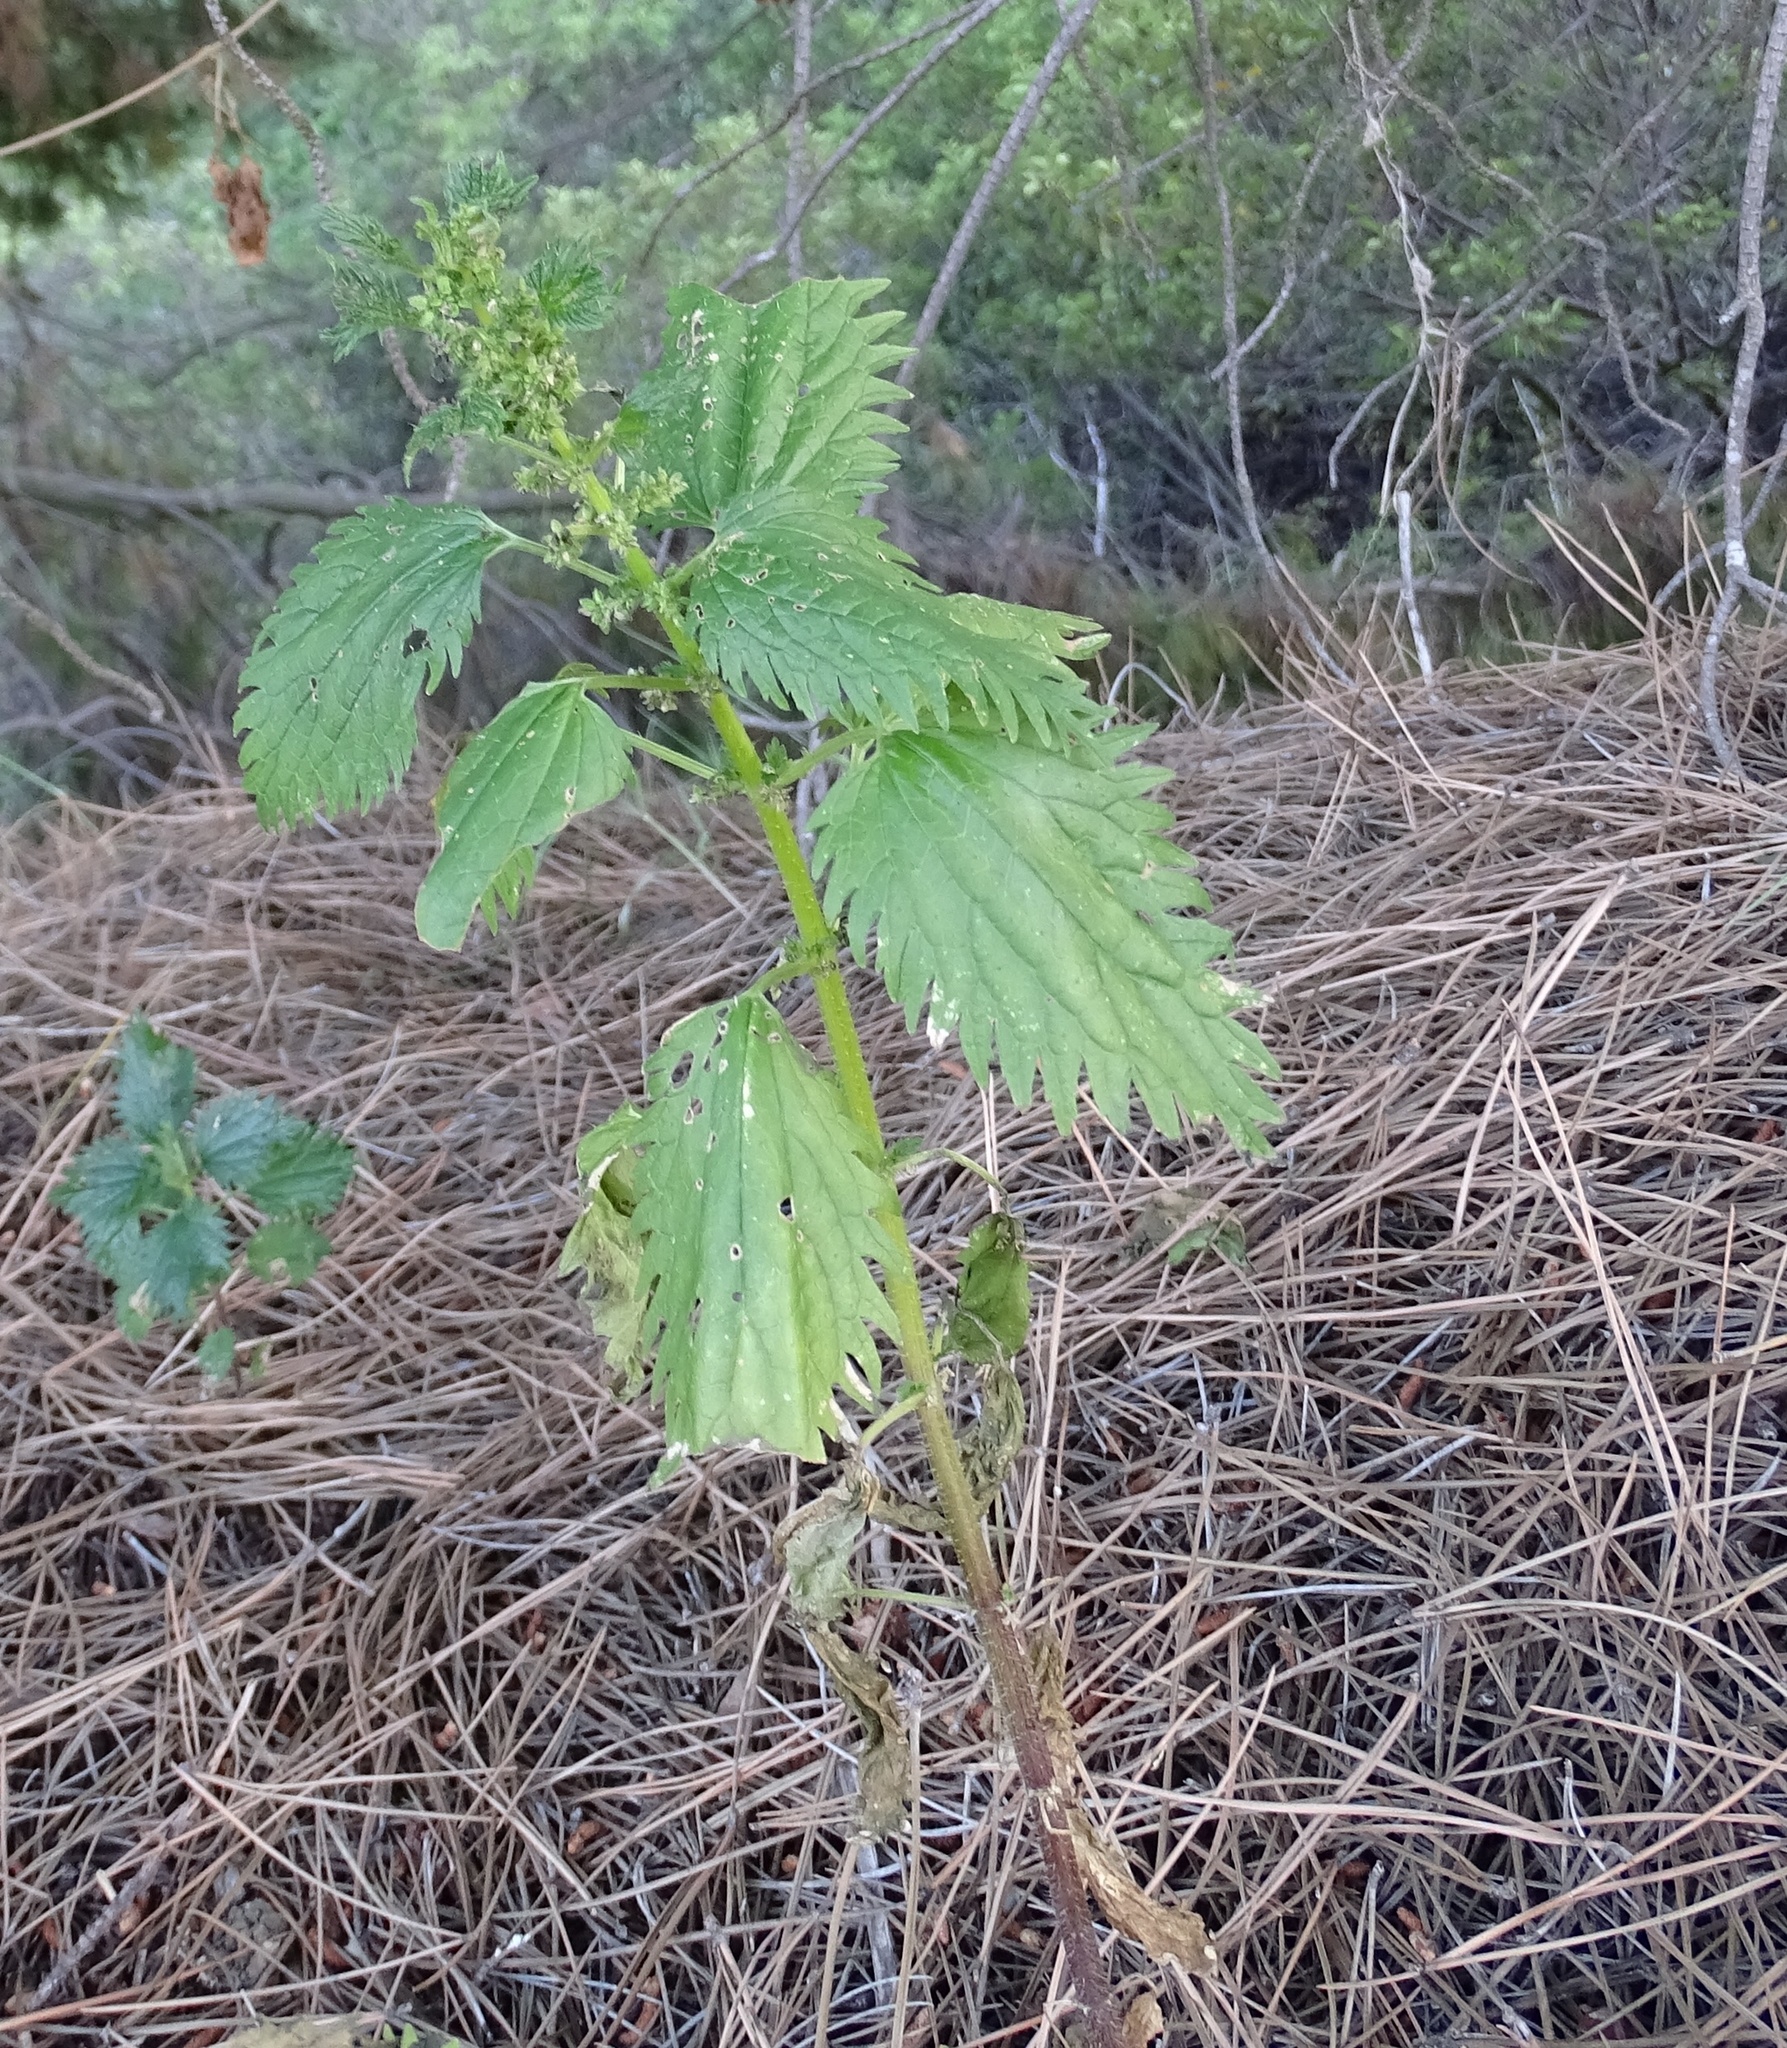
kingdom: Plantae
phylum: Tracheophyta
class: Magnoliopsida
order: Rosales
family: Urticaceae
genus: Urtica
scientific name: Urtica urens
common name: Dwarf nettle
